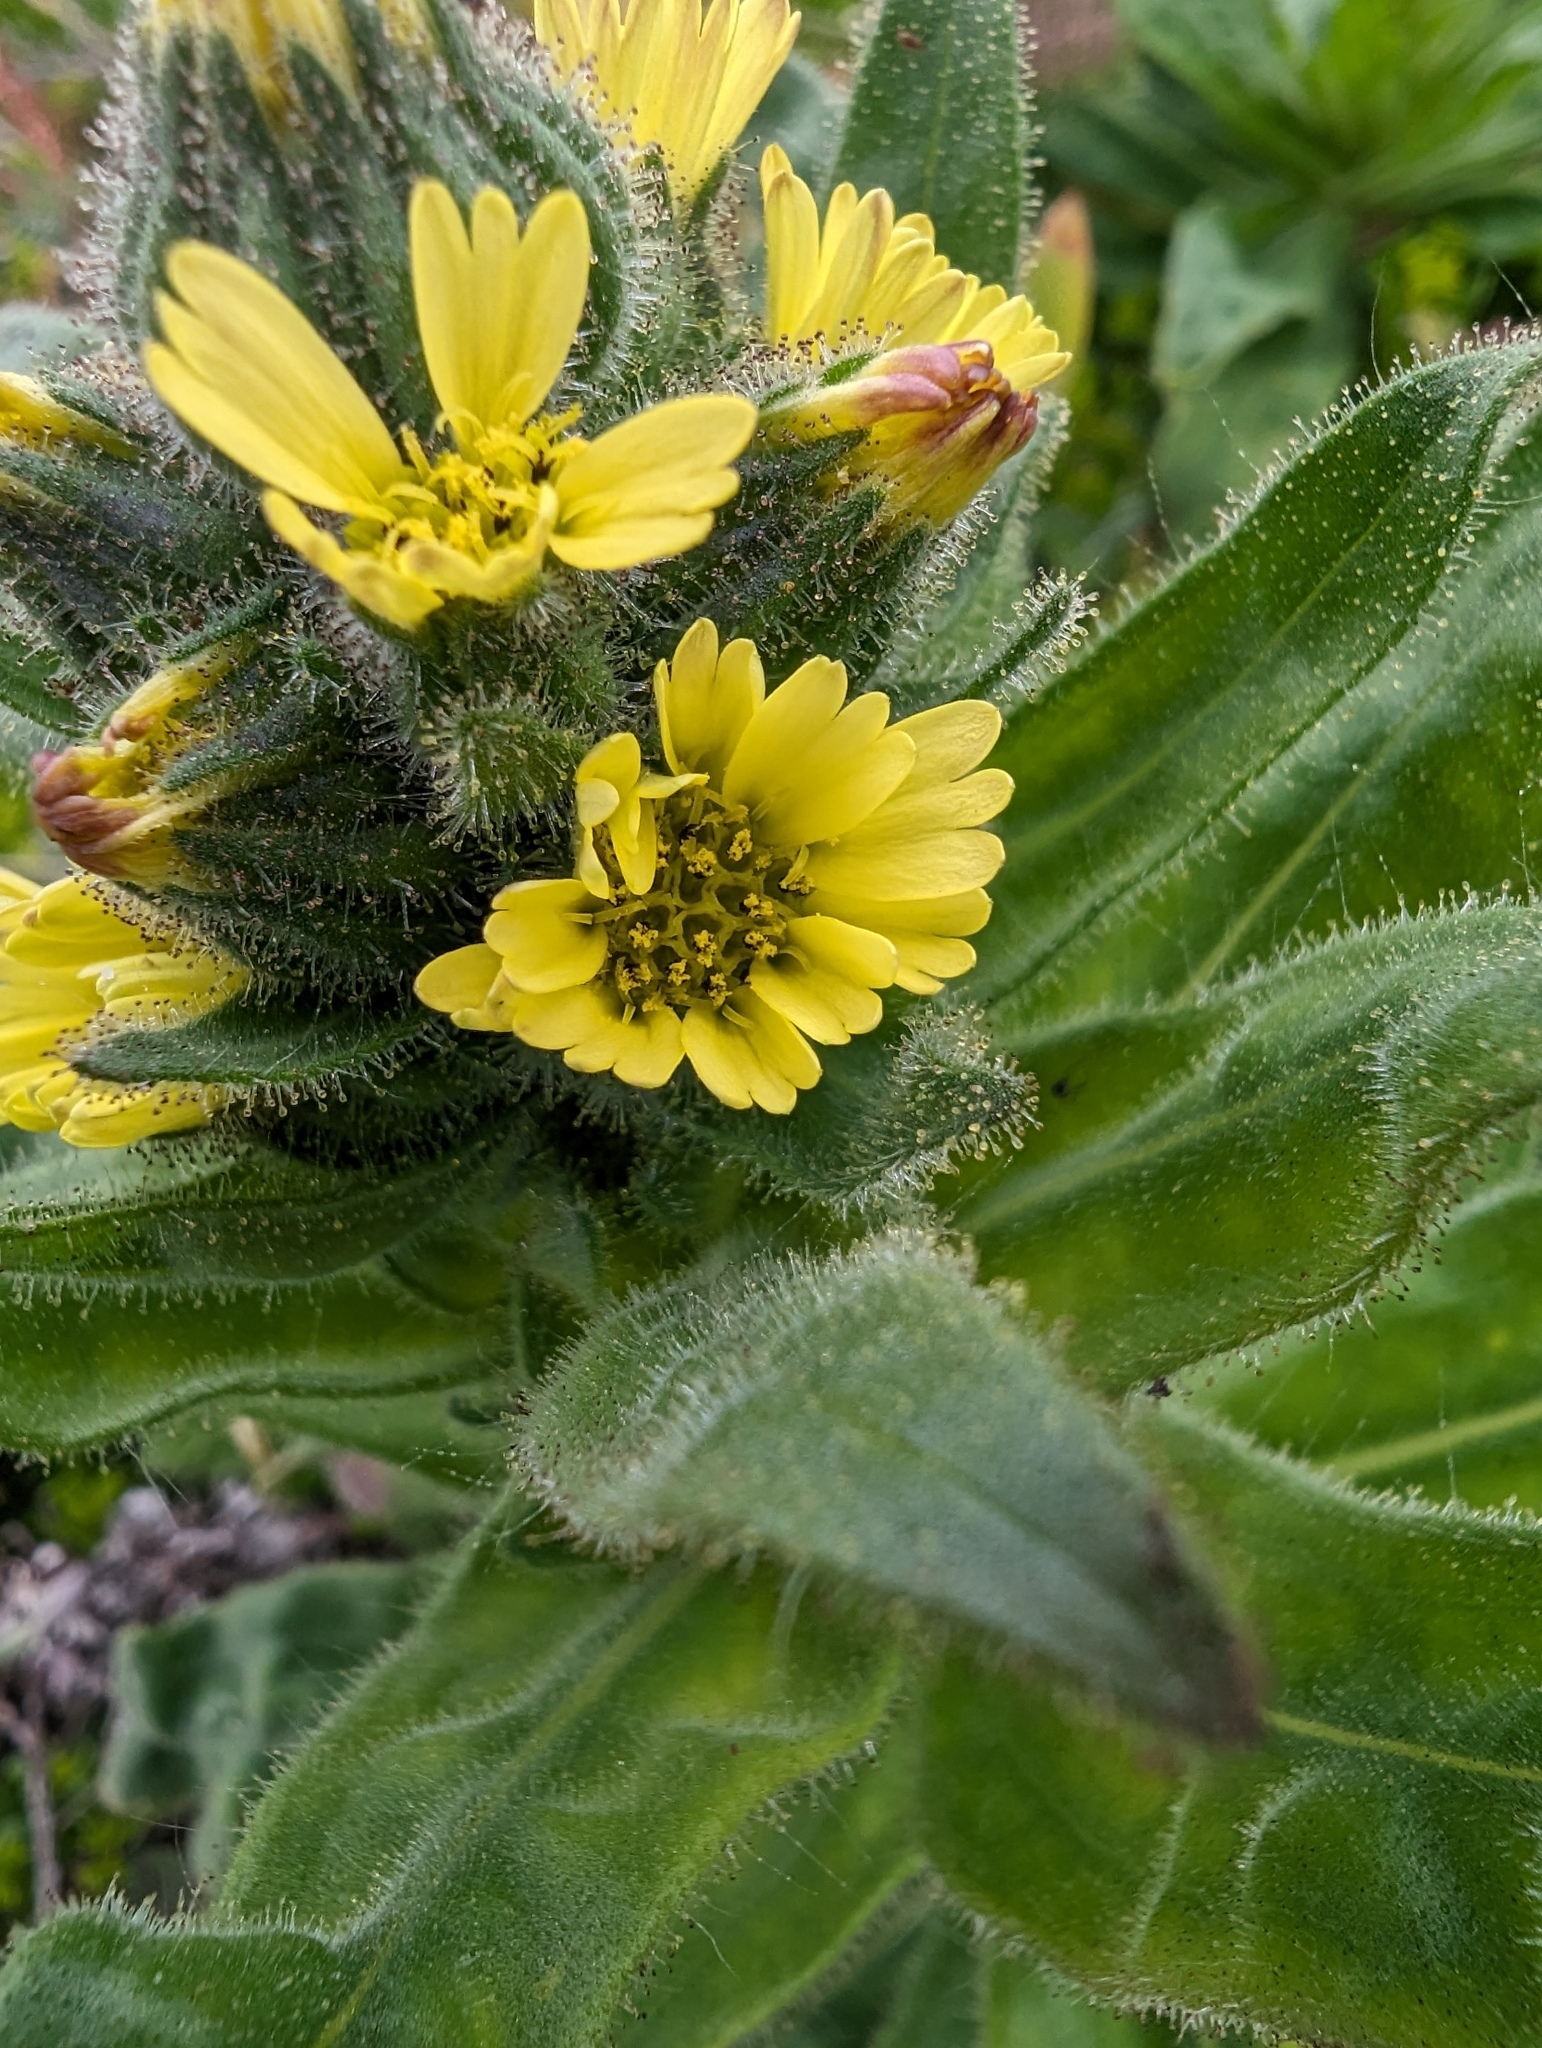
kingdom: Plantae
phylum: Tracheophyta
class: Magnoliopsida
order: Asterales
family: Asteraceae
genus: Madia
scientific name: Madia sativa
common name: Coast tarweed
